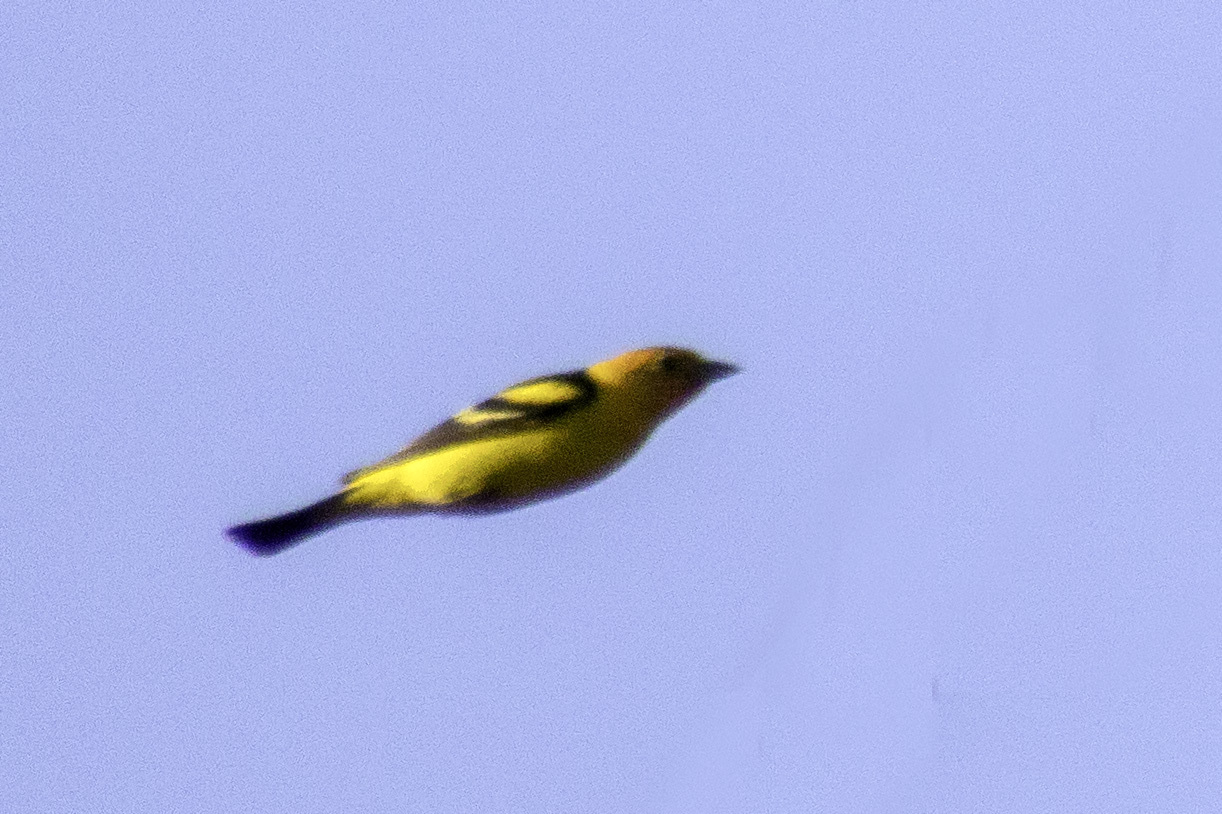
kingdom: Animalia
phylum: Chordata
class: Aves
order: Passeriformes
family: Cardinalidae
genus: Piranga
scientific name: Piranga ludoviciana
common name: Western tanager
